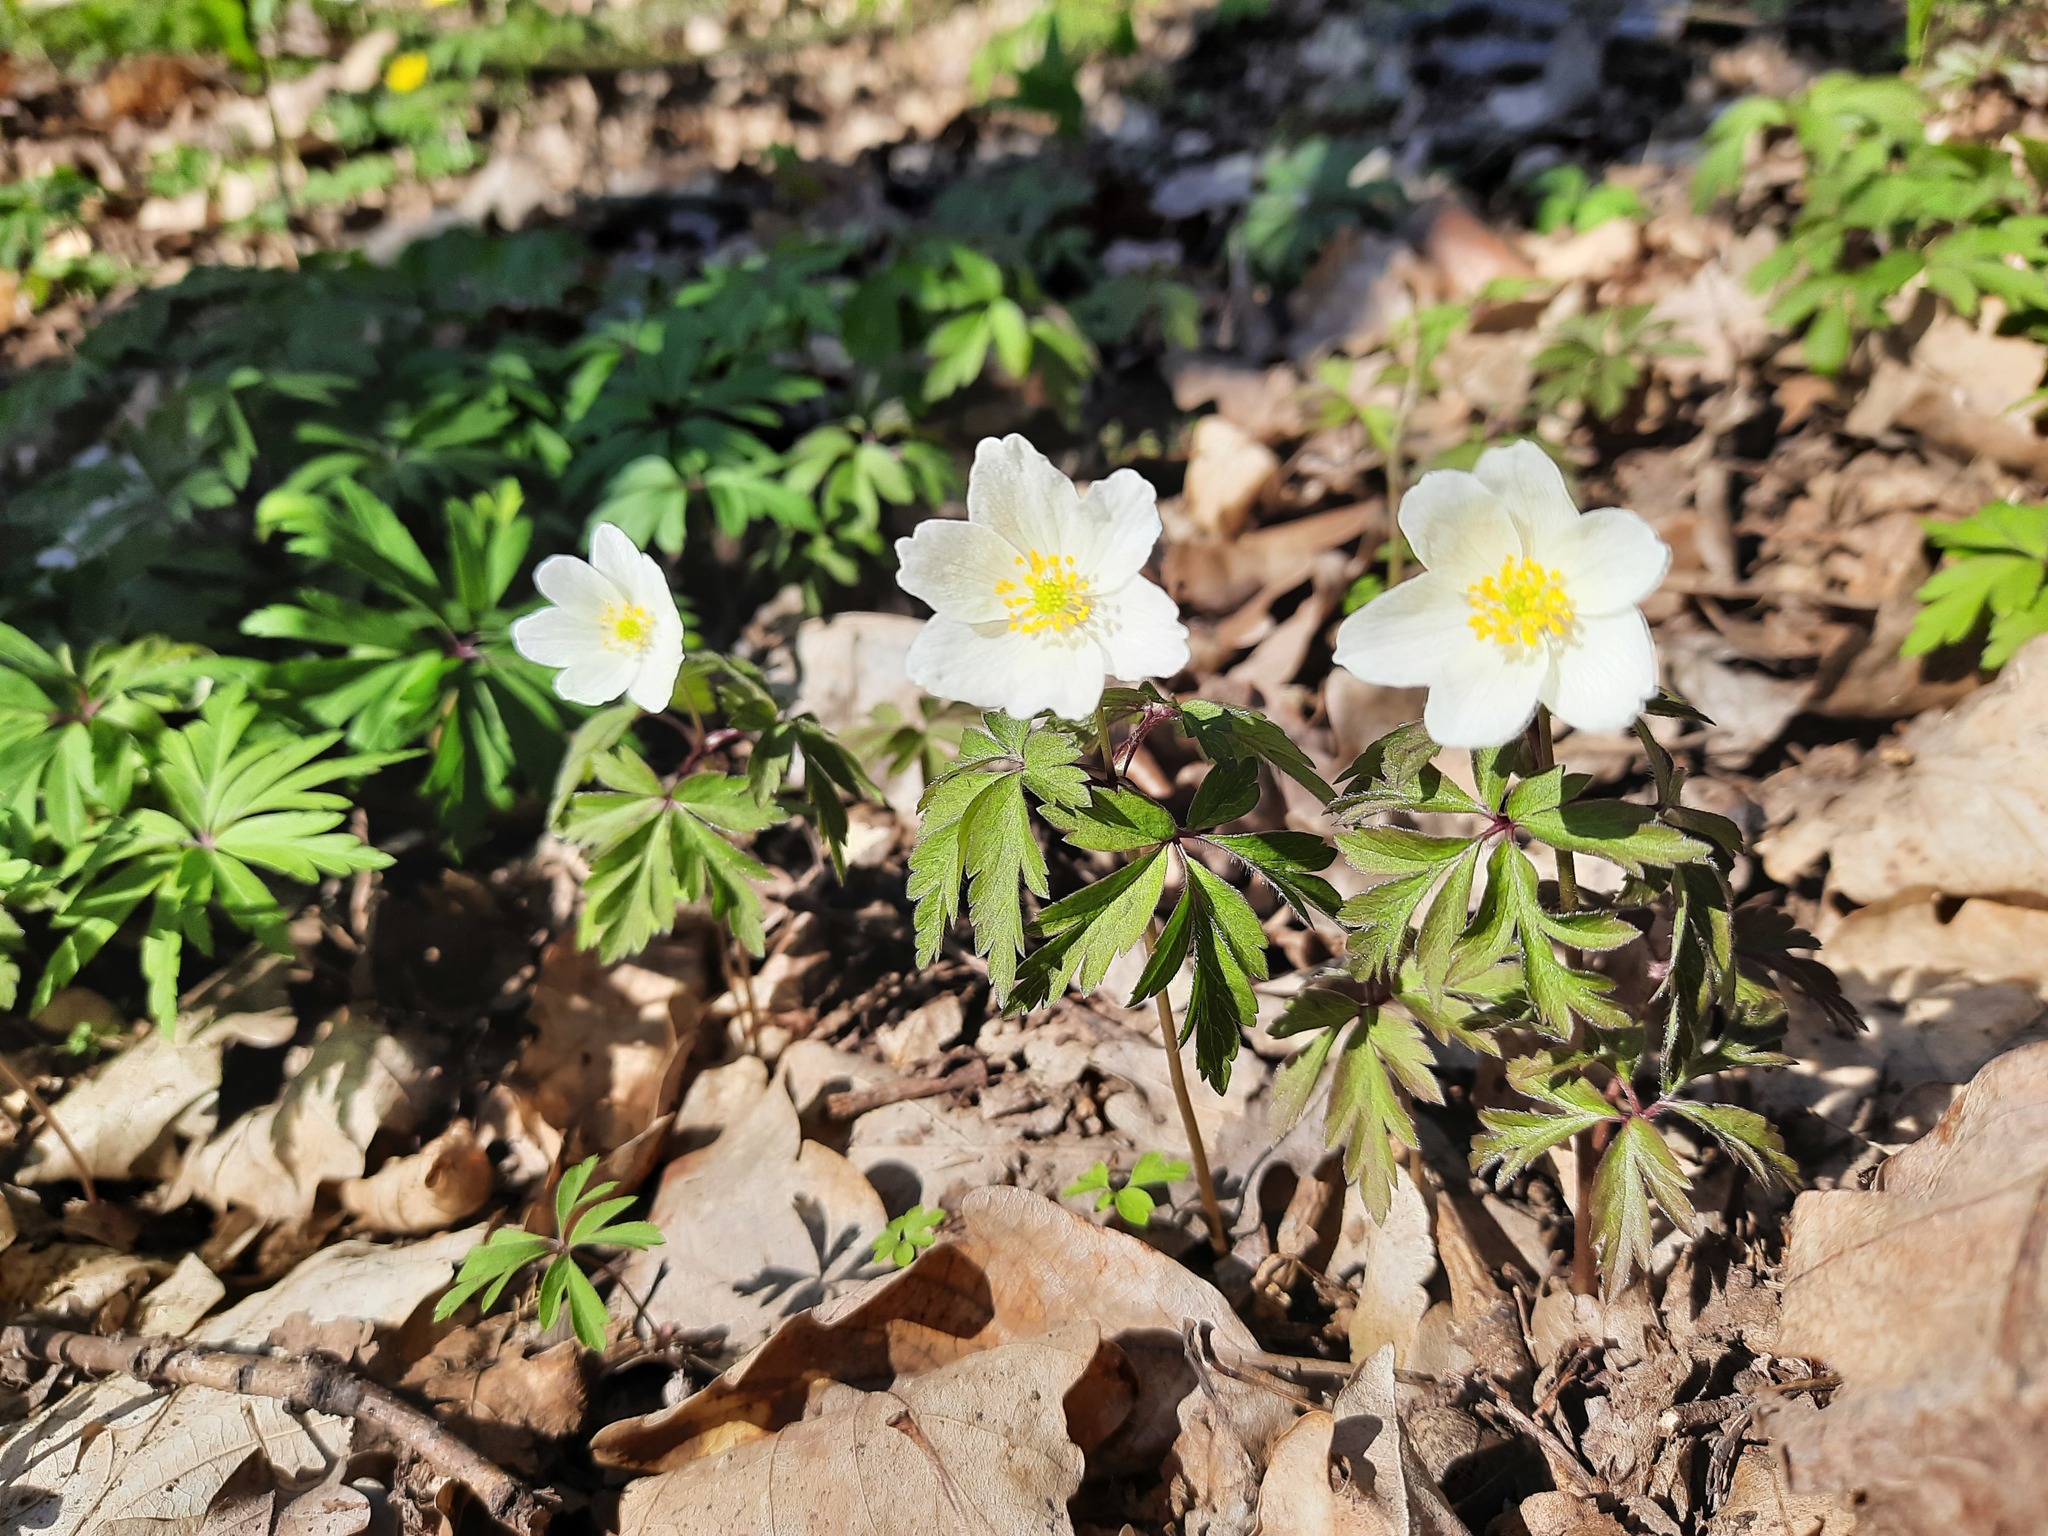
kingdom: Plantae
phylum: Tracheophyta
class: Magnoliopsida
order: Ranunculales
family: Ranunculaceae
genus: Anemone
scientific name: Anemone nemorosa
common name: Wood anemone
